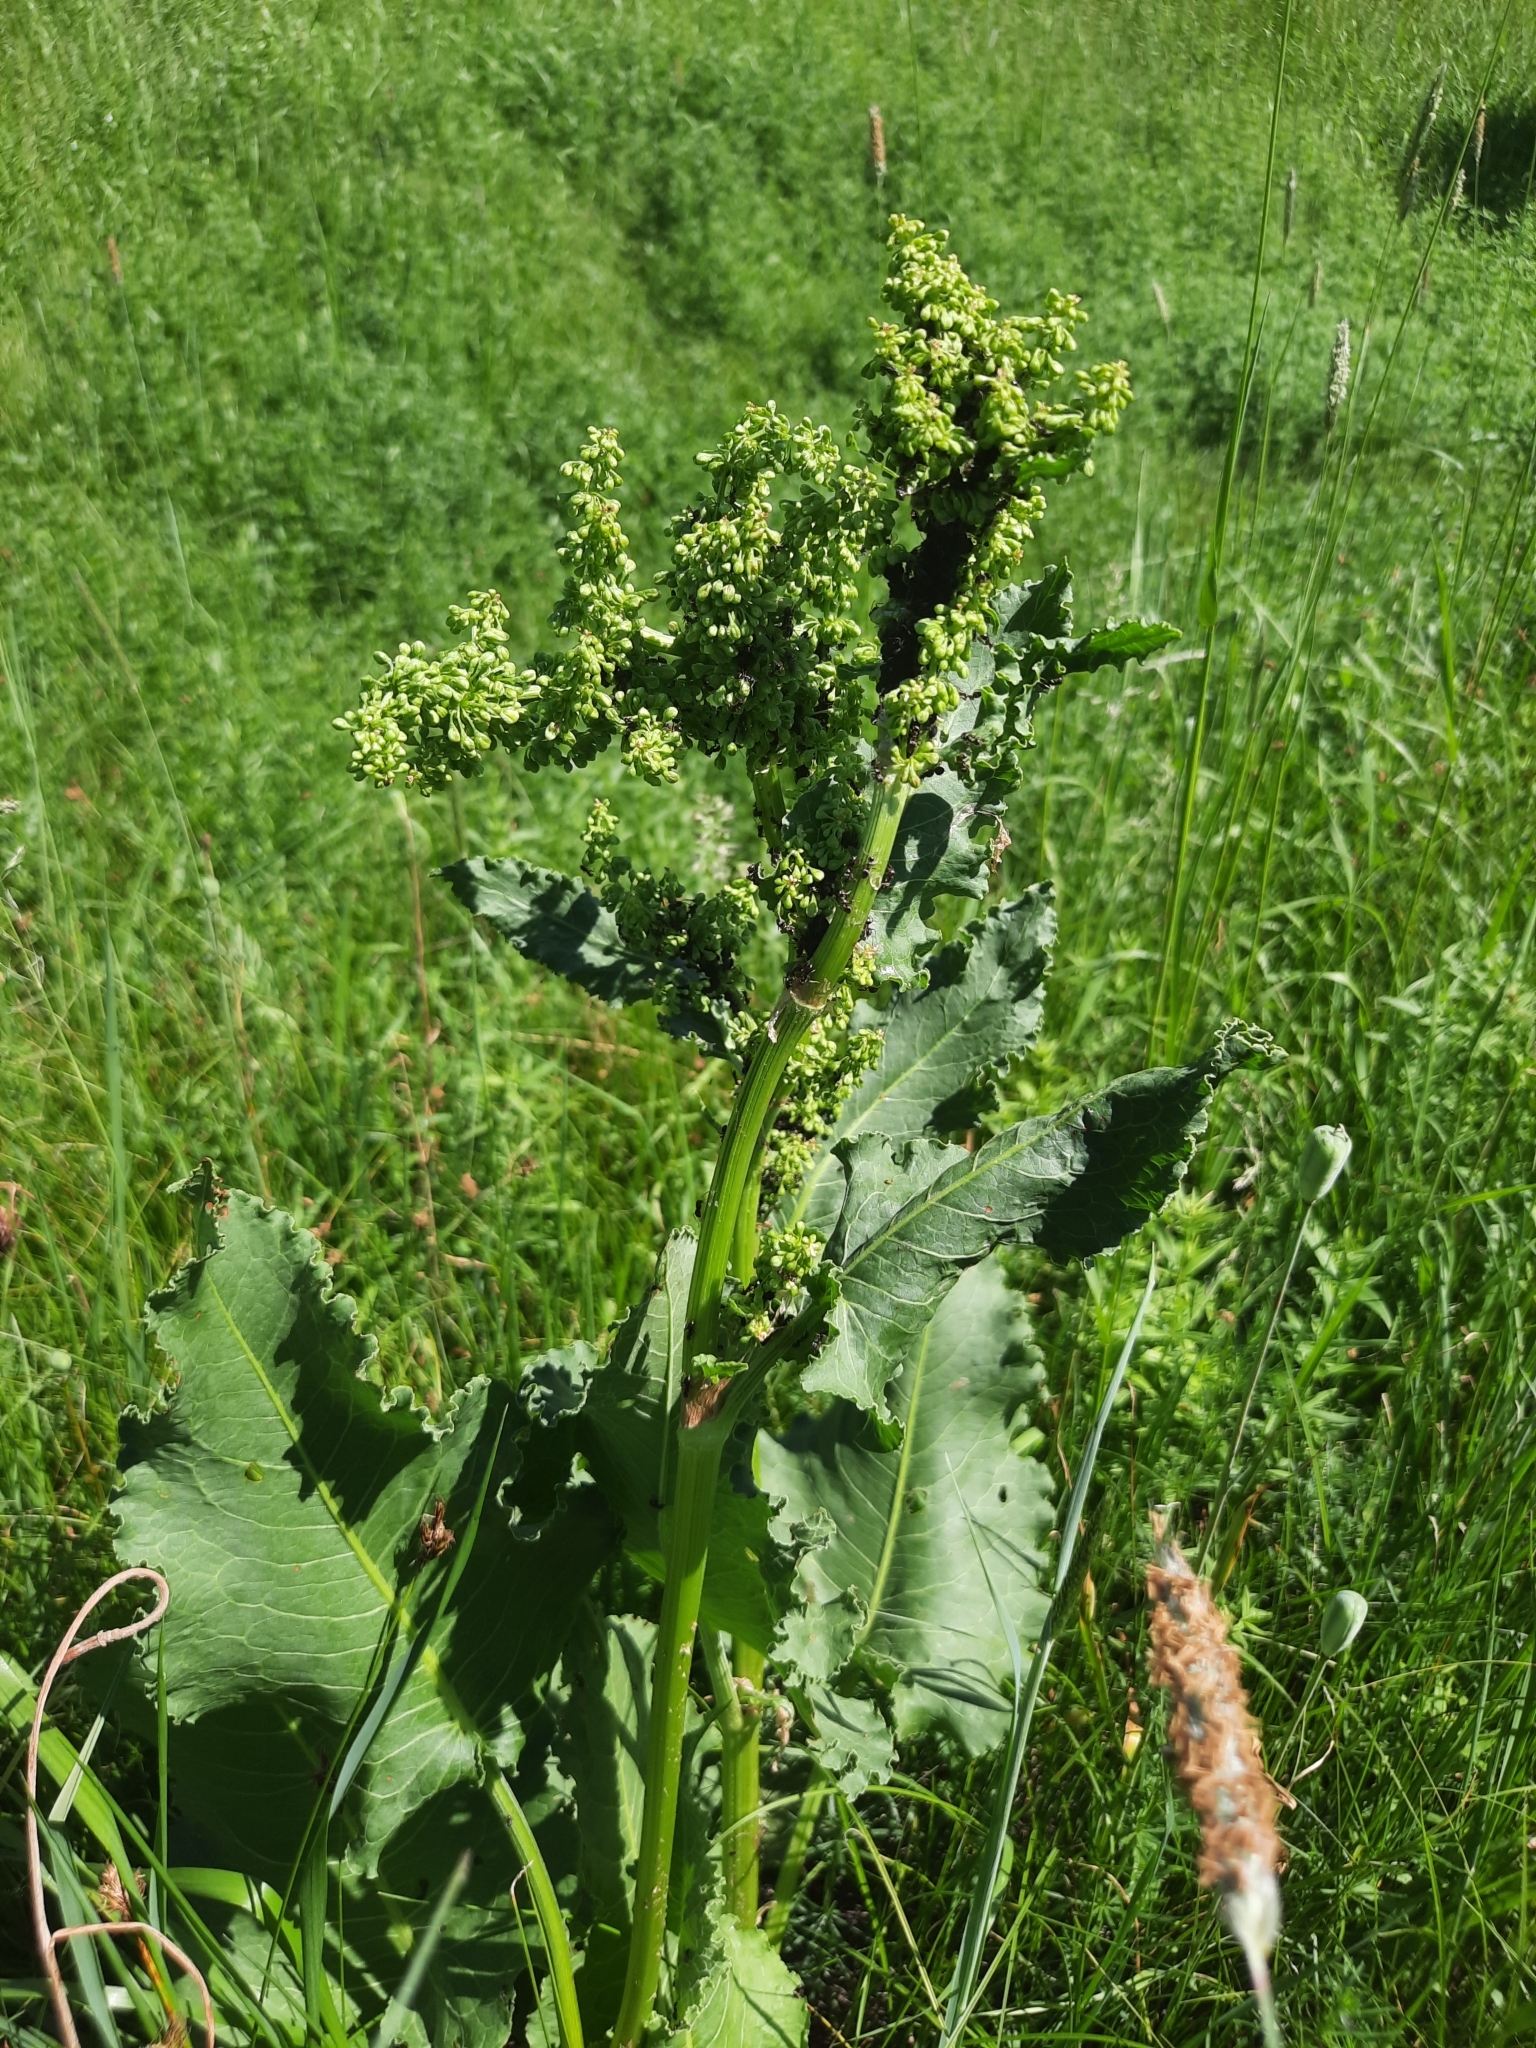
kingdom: Plantae
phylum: Tracheophyta
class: Magnoliopsida
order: Caryophyllales
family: Polygonaceae
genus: Rumex
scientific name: Rumex confertus
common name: Russian dock
